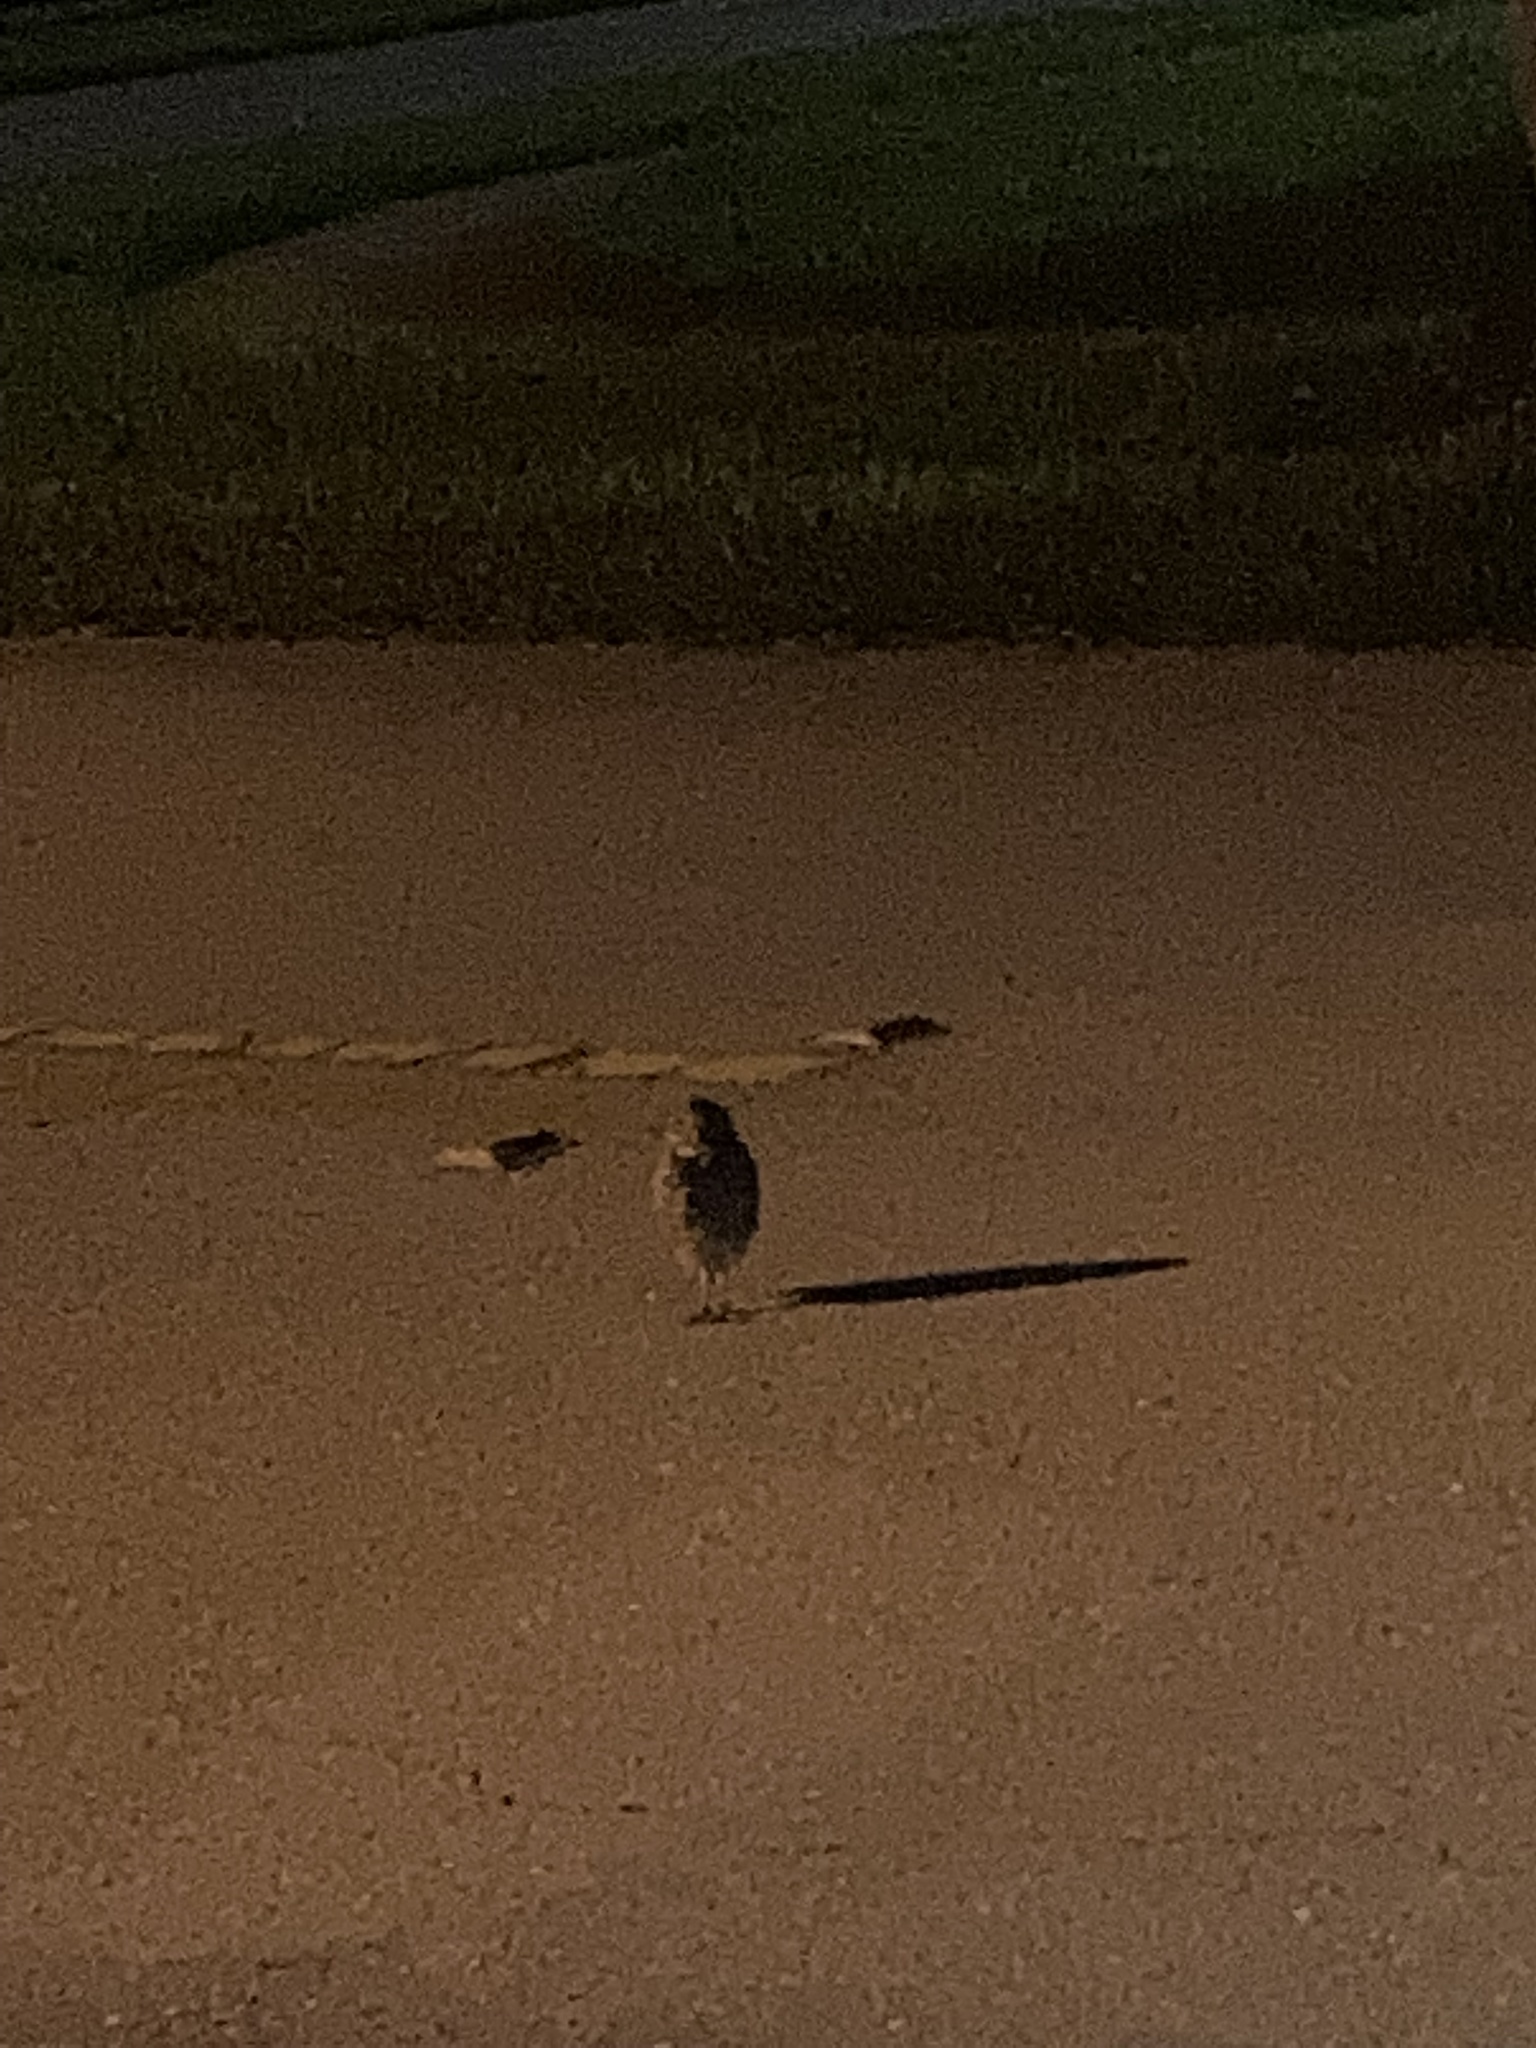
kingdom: Animalia
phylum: Chordata
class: Aves
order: Strigiformes
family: Strigidae
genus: Athene
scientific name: Athene cunicularia
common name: Burrowing owl
